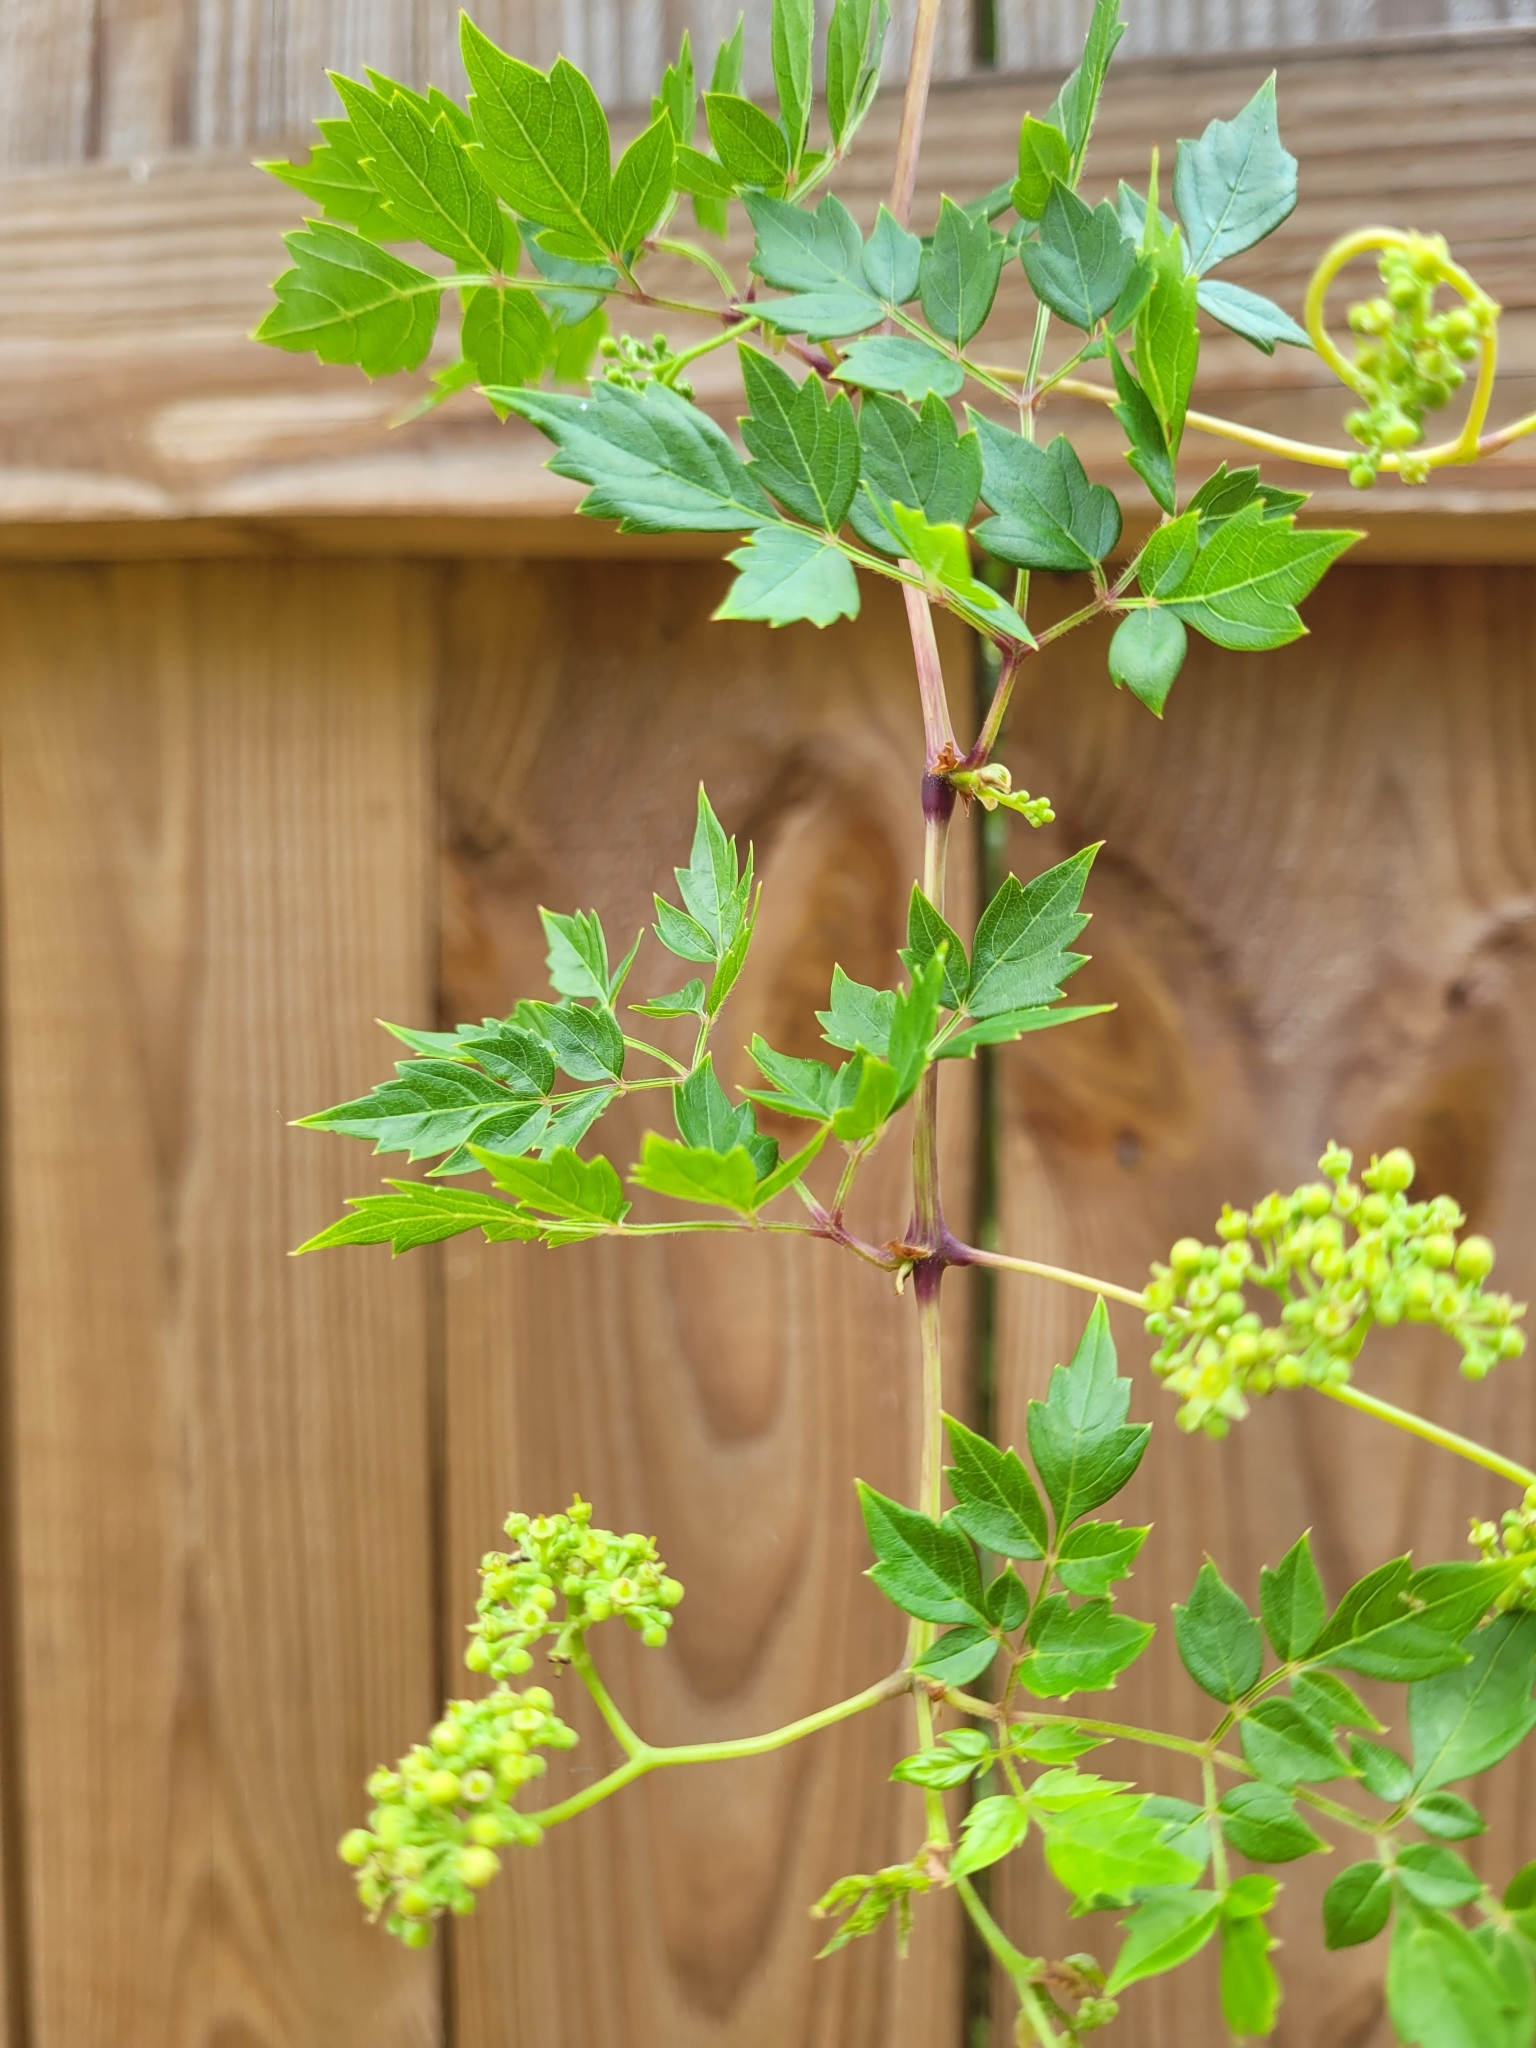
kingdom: Plantae
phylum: Tracheophyta
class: Magnoliopsida
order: Vitales
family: Vitaceae
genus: Nekemias
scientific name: Nekemias arborea
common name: Peppervine
